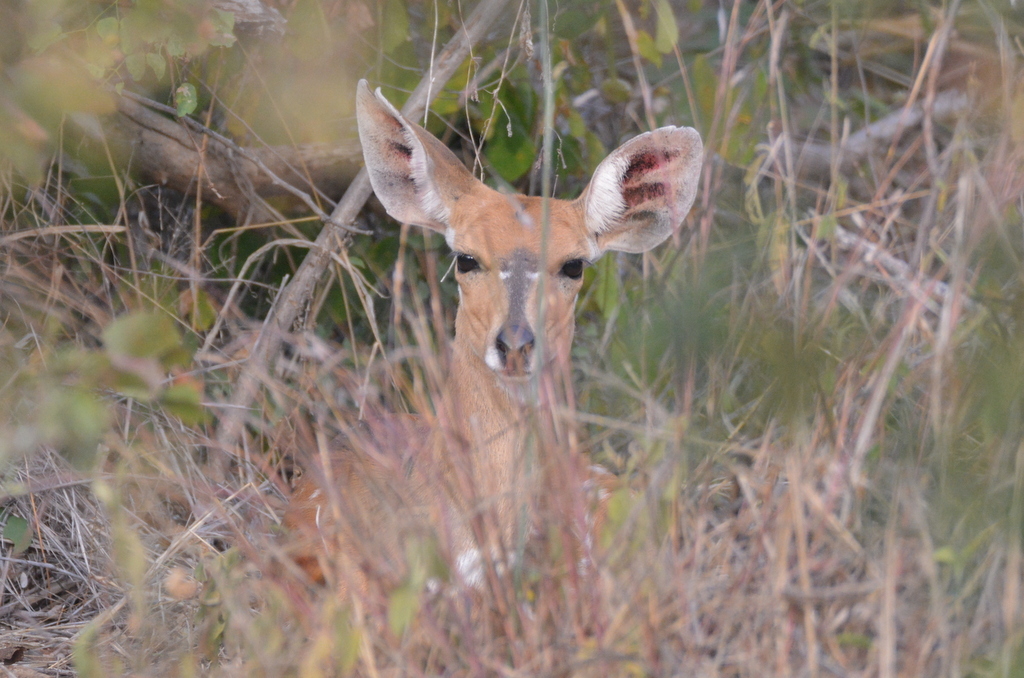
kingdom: Animalia
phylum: Chordata
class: Mammalia
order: Artiodactyla
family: Bovidae
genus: Tragelaphus
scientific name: Tragelaphus scriptus
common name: Bushbuck
